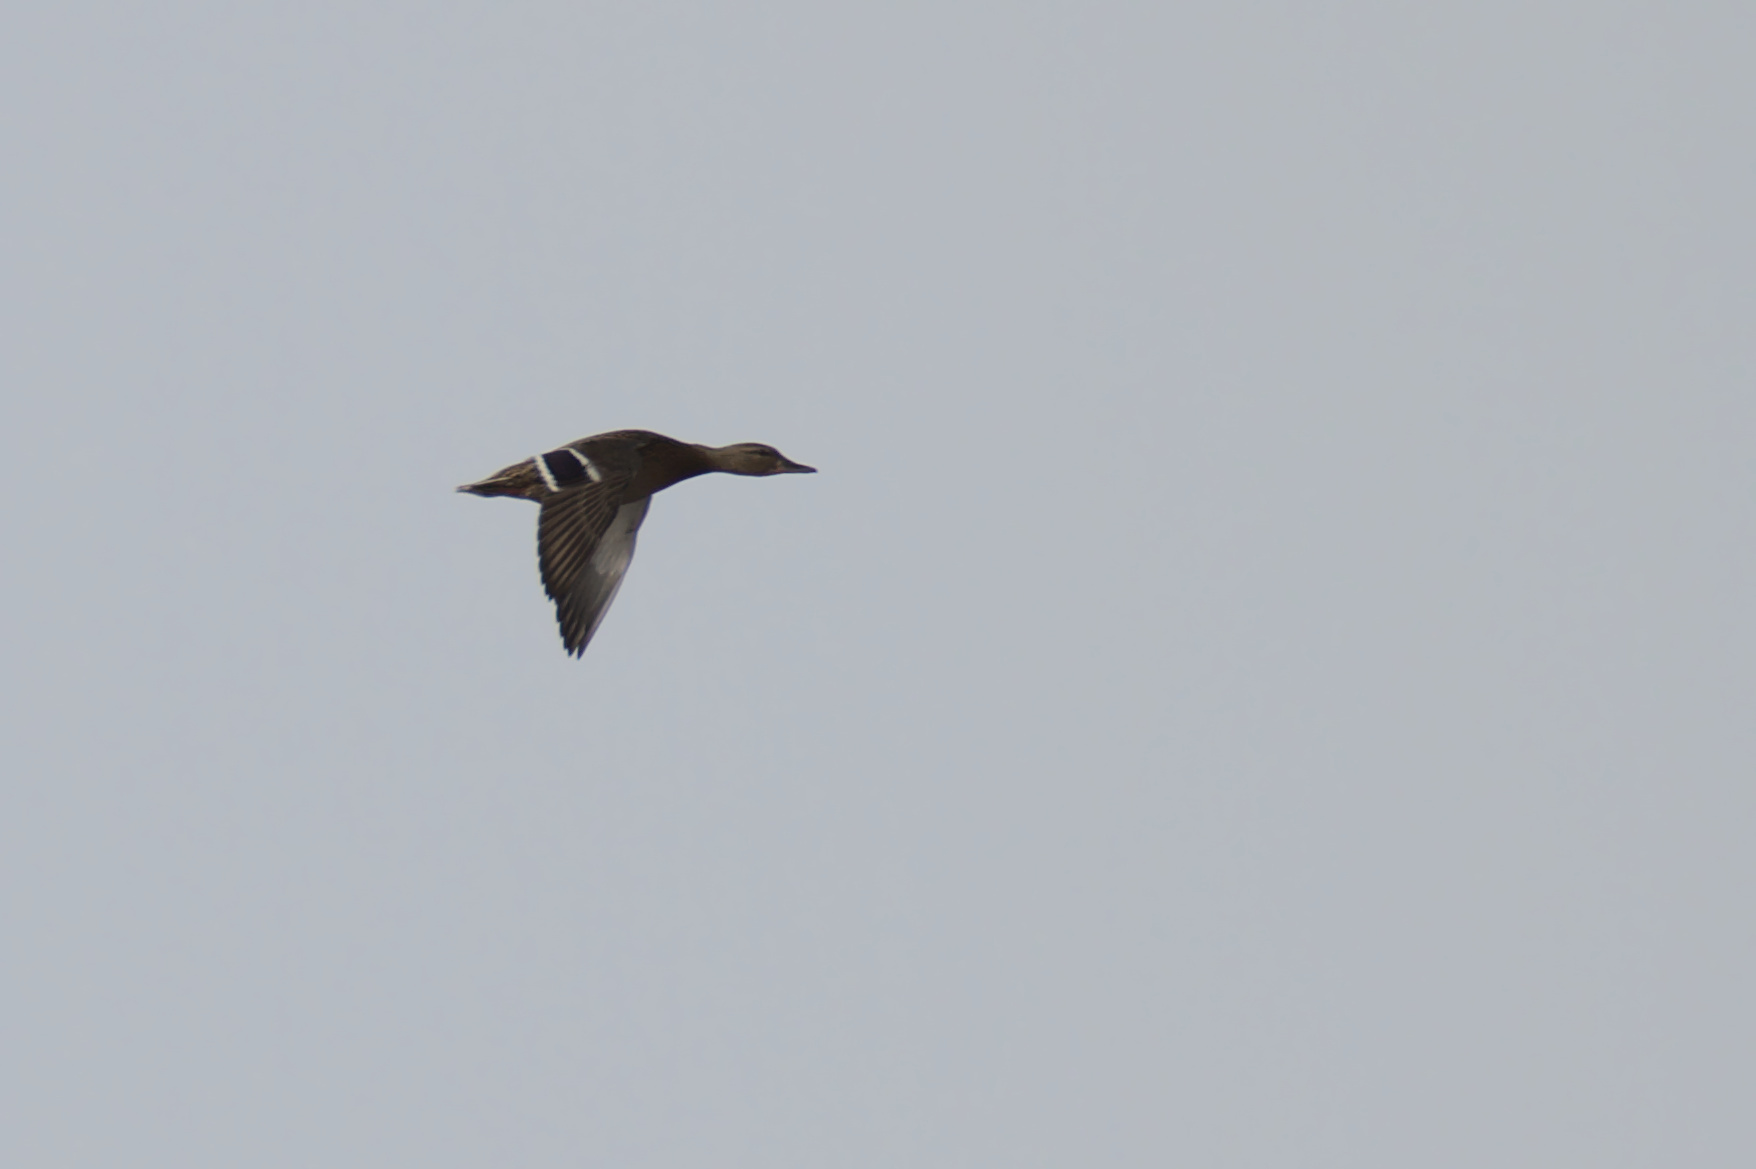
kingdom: Animalia
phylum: Chordata
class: Aves
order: Anseriformes
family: Anatidae
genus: Anas
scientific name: Anas platyrhynchos
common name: Mallard
